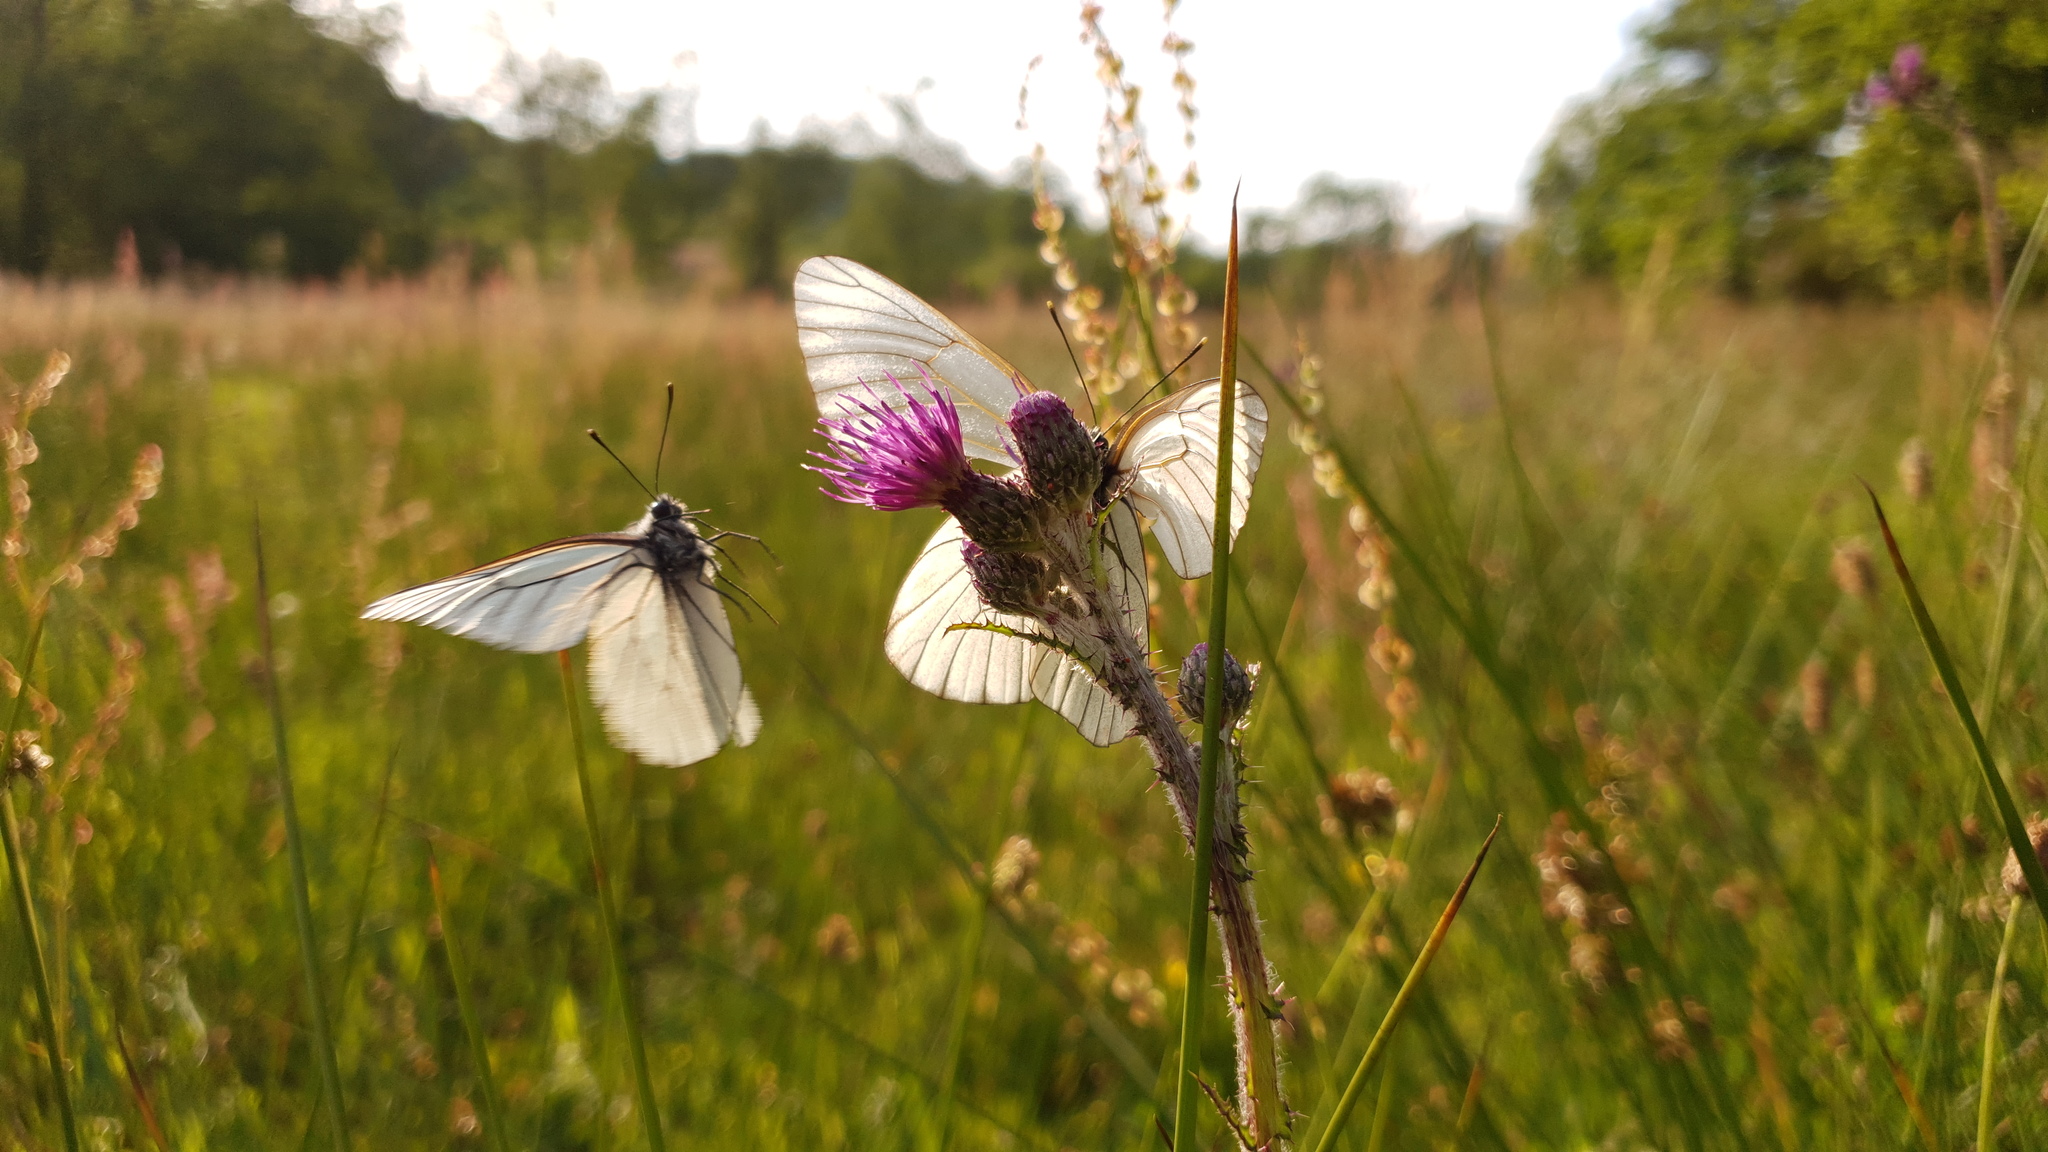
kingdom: Animalia
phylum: Arthropoda
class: Insecta
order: Lepidoptera
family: Pieridae
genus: Aporia
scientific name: Aporia crataegi
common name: Black-veined white
